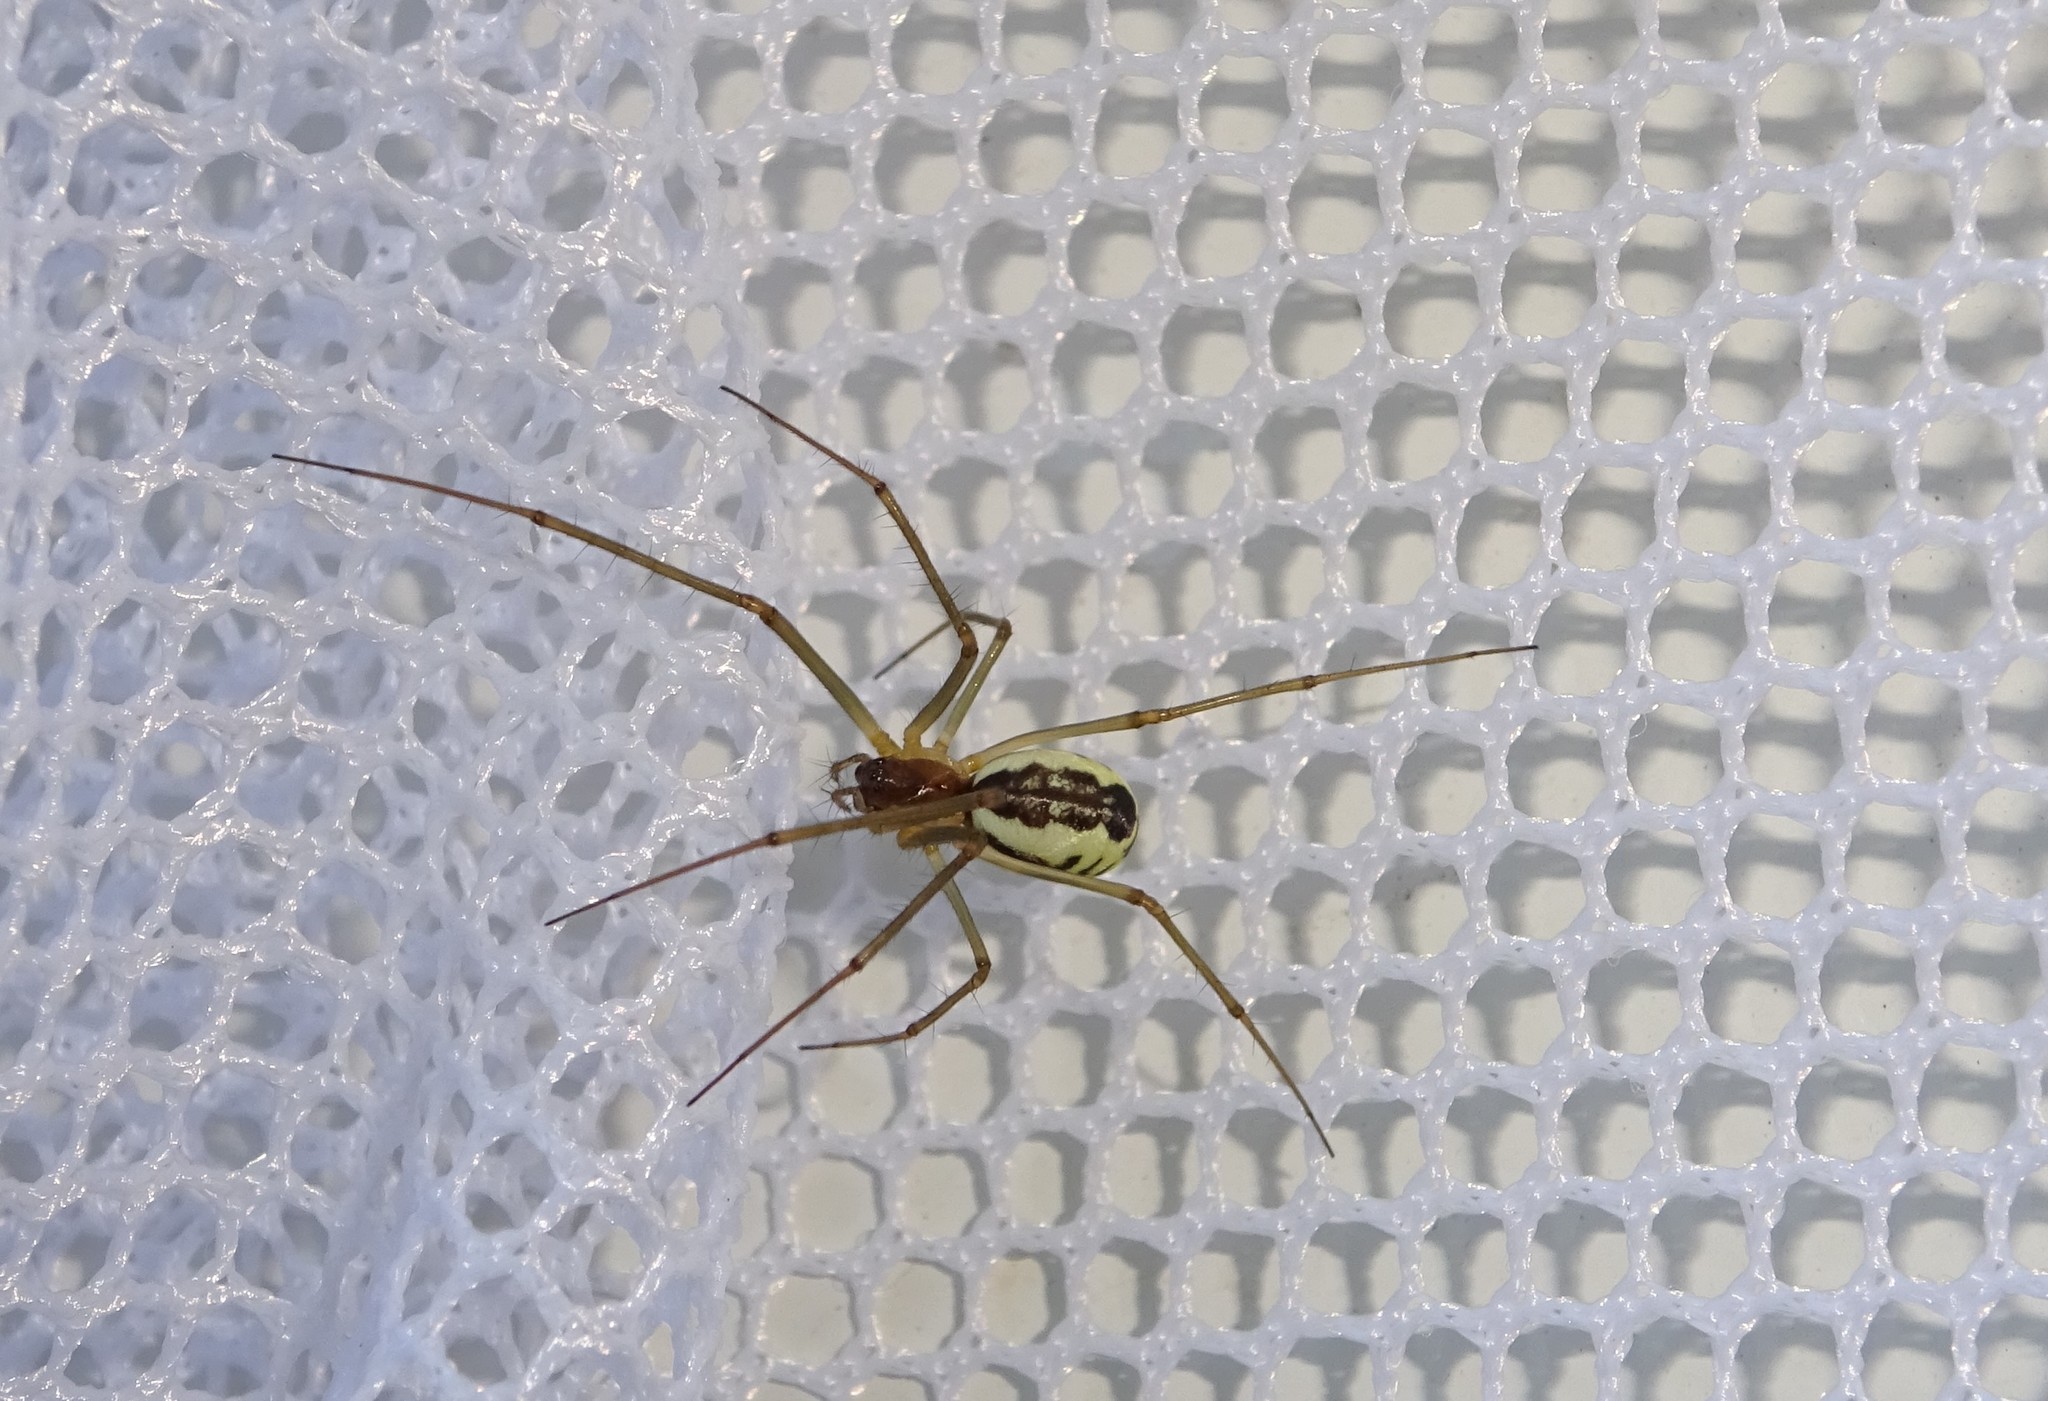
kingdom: Animalia
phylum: Arthropoda
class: Arachnida
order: Araneae
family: Linyphiidae
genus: Neriene
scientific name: Neriene radiata
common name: Filmy dome spider
